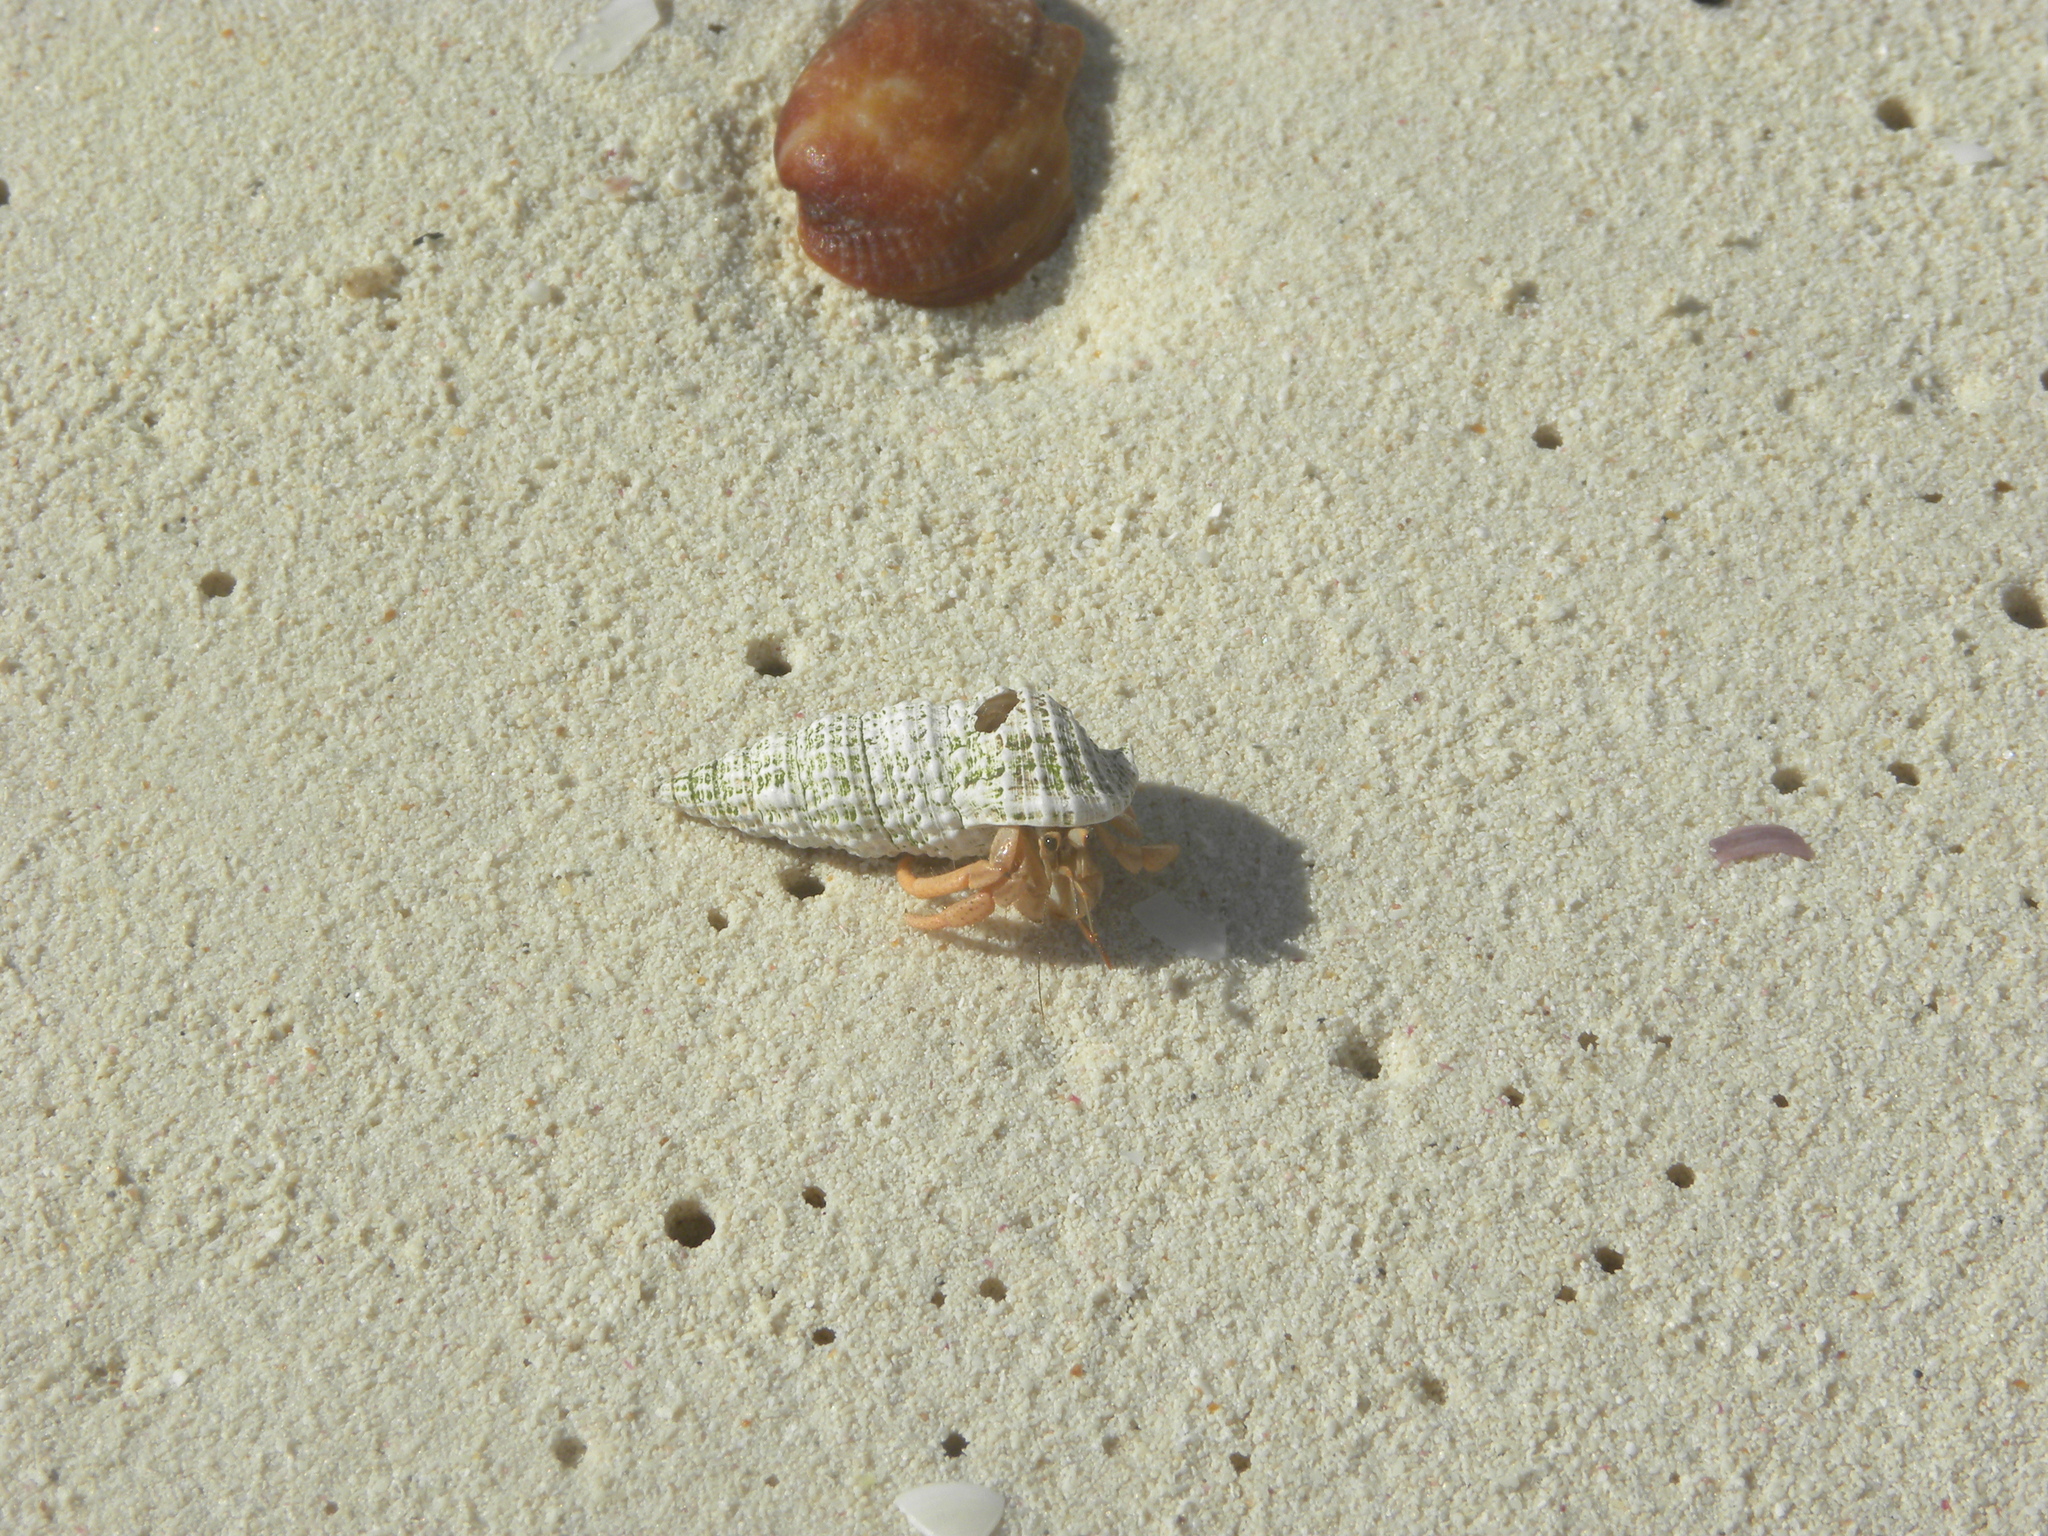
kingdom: Animalia
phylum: Arthropoda
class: Malacostraca
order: Decapoda
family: Coenobitidae
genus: Coenobita
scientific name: Coenobita clypeatus
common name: Caribbean hermit crab
